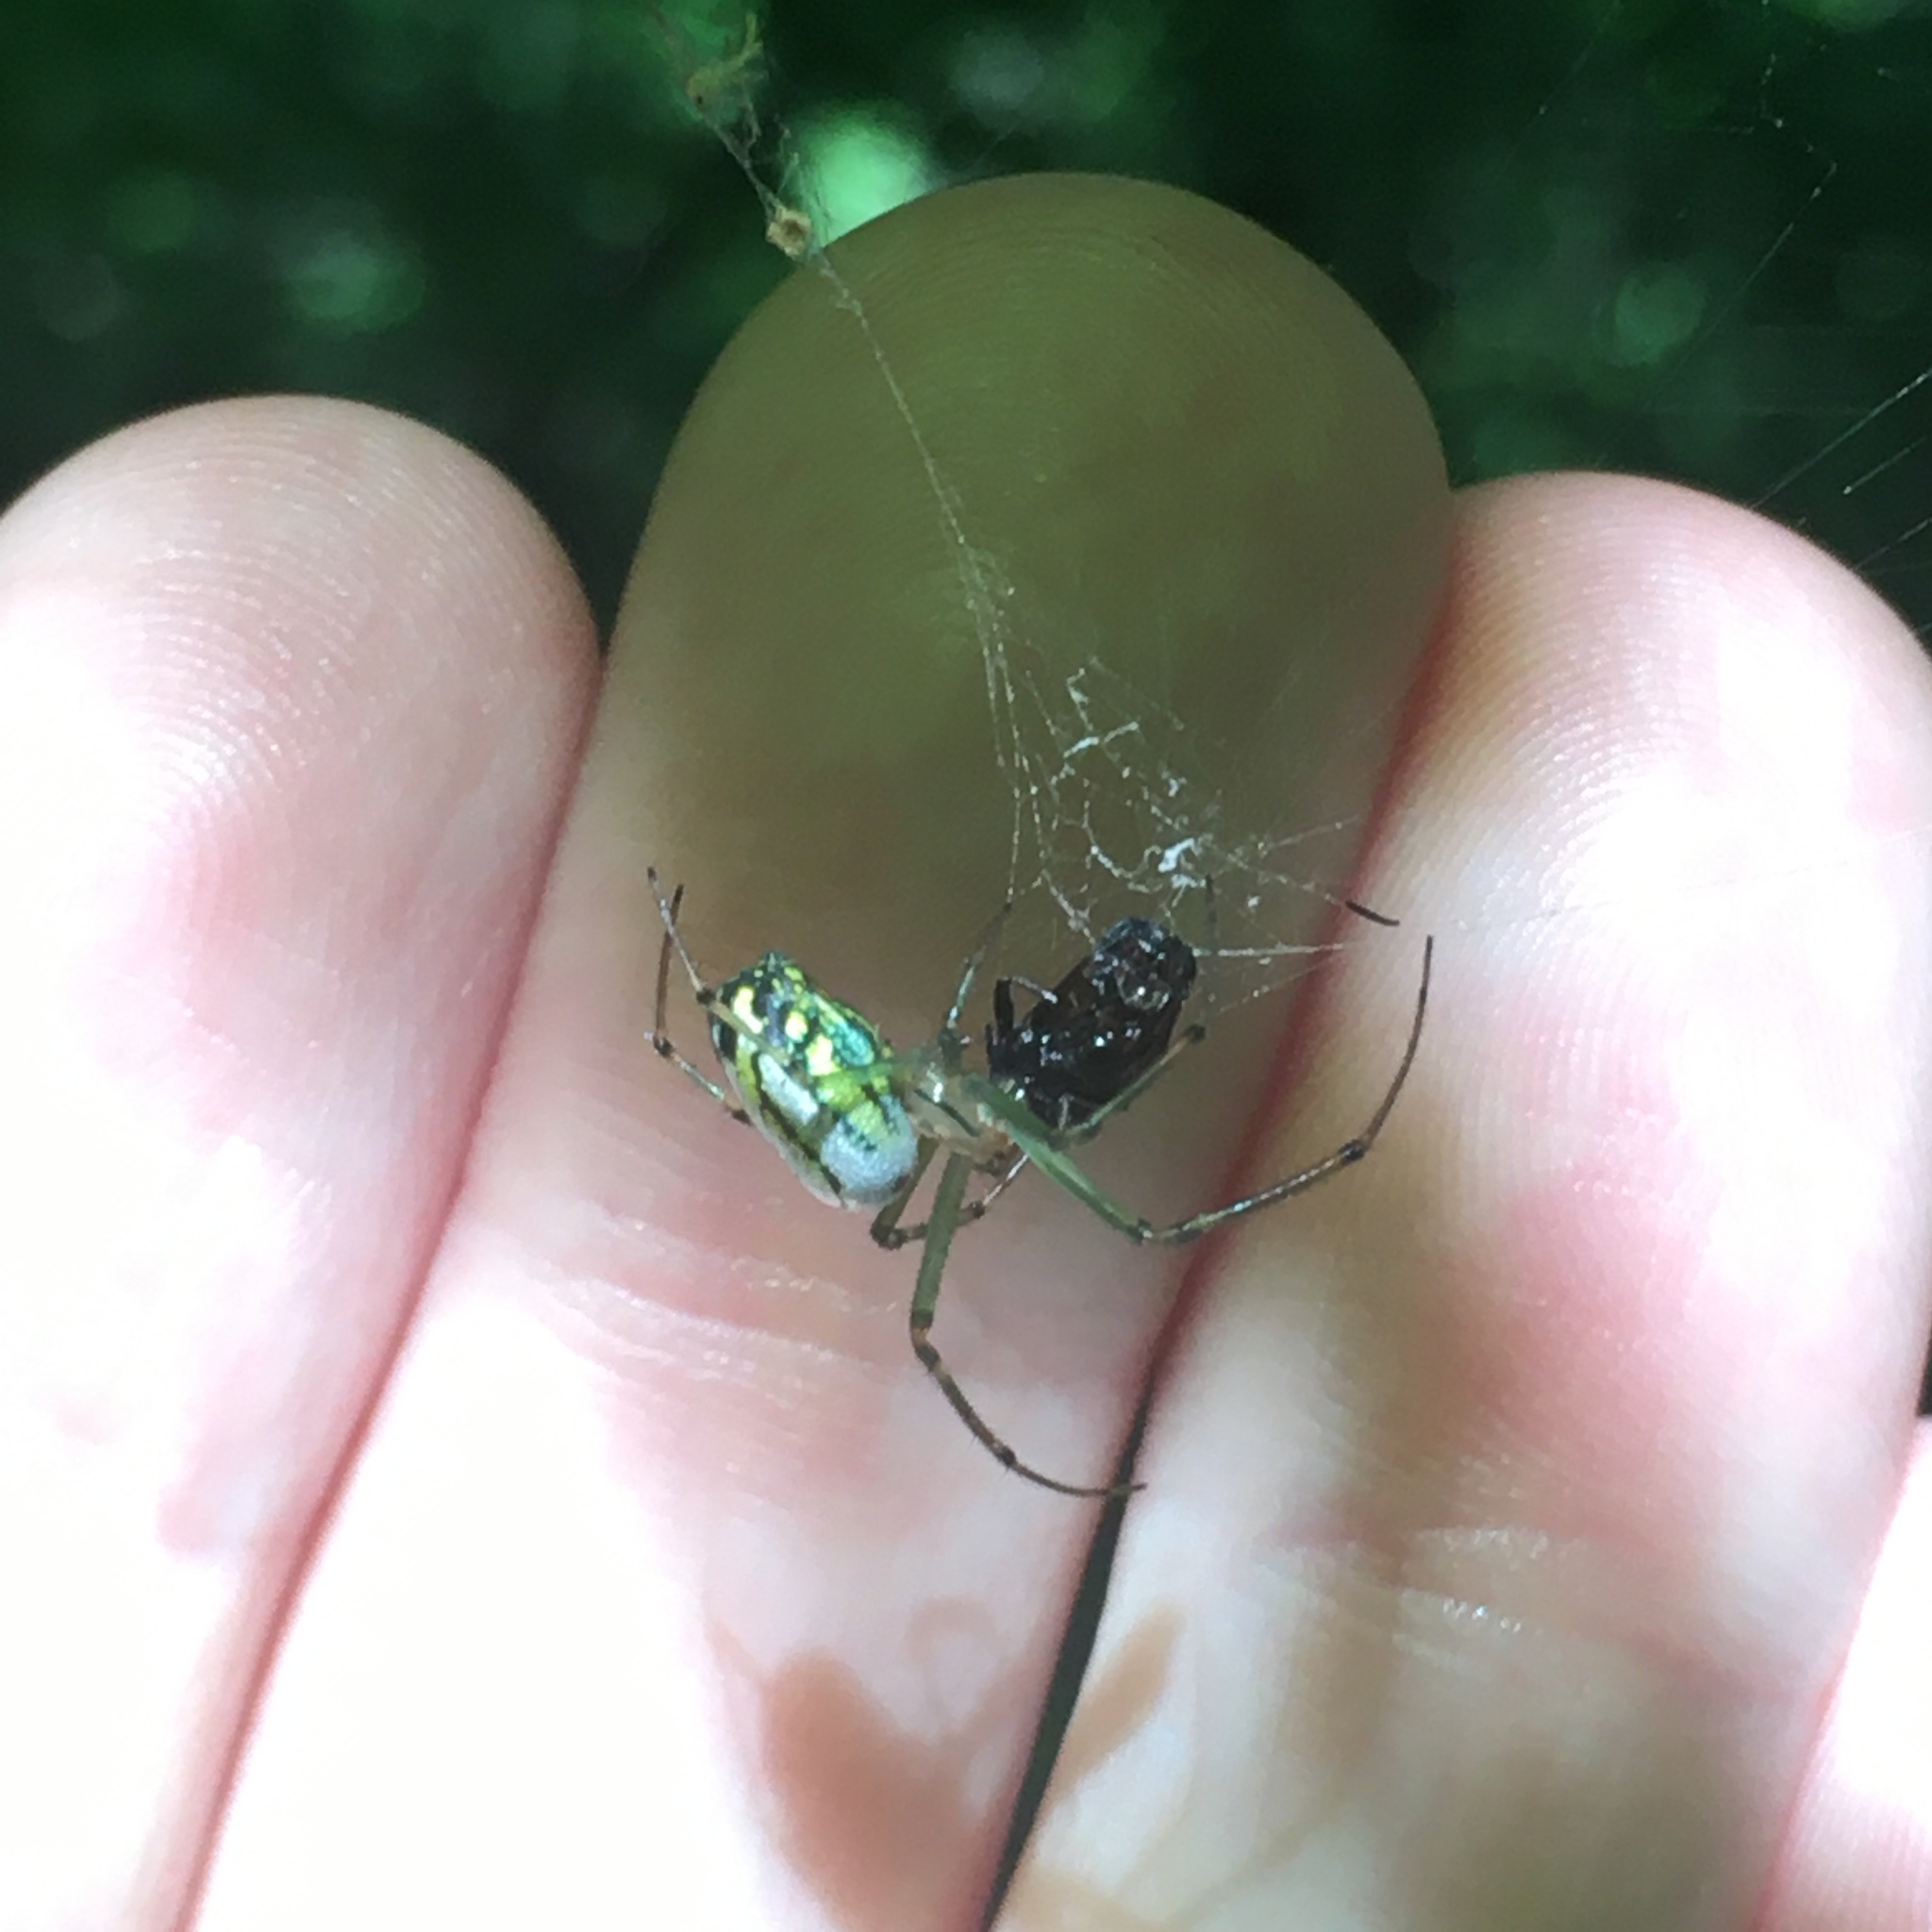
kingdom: Animalia
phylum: Arthropoda
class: Arachnida
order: Araneae
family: Tetragnathidae
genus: Leucauge
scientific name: Leucauge venusta
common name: Longjawed orb weavers
